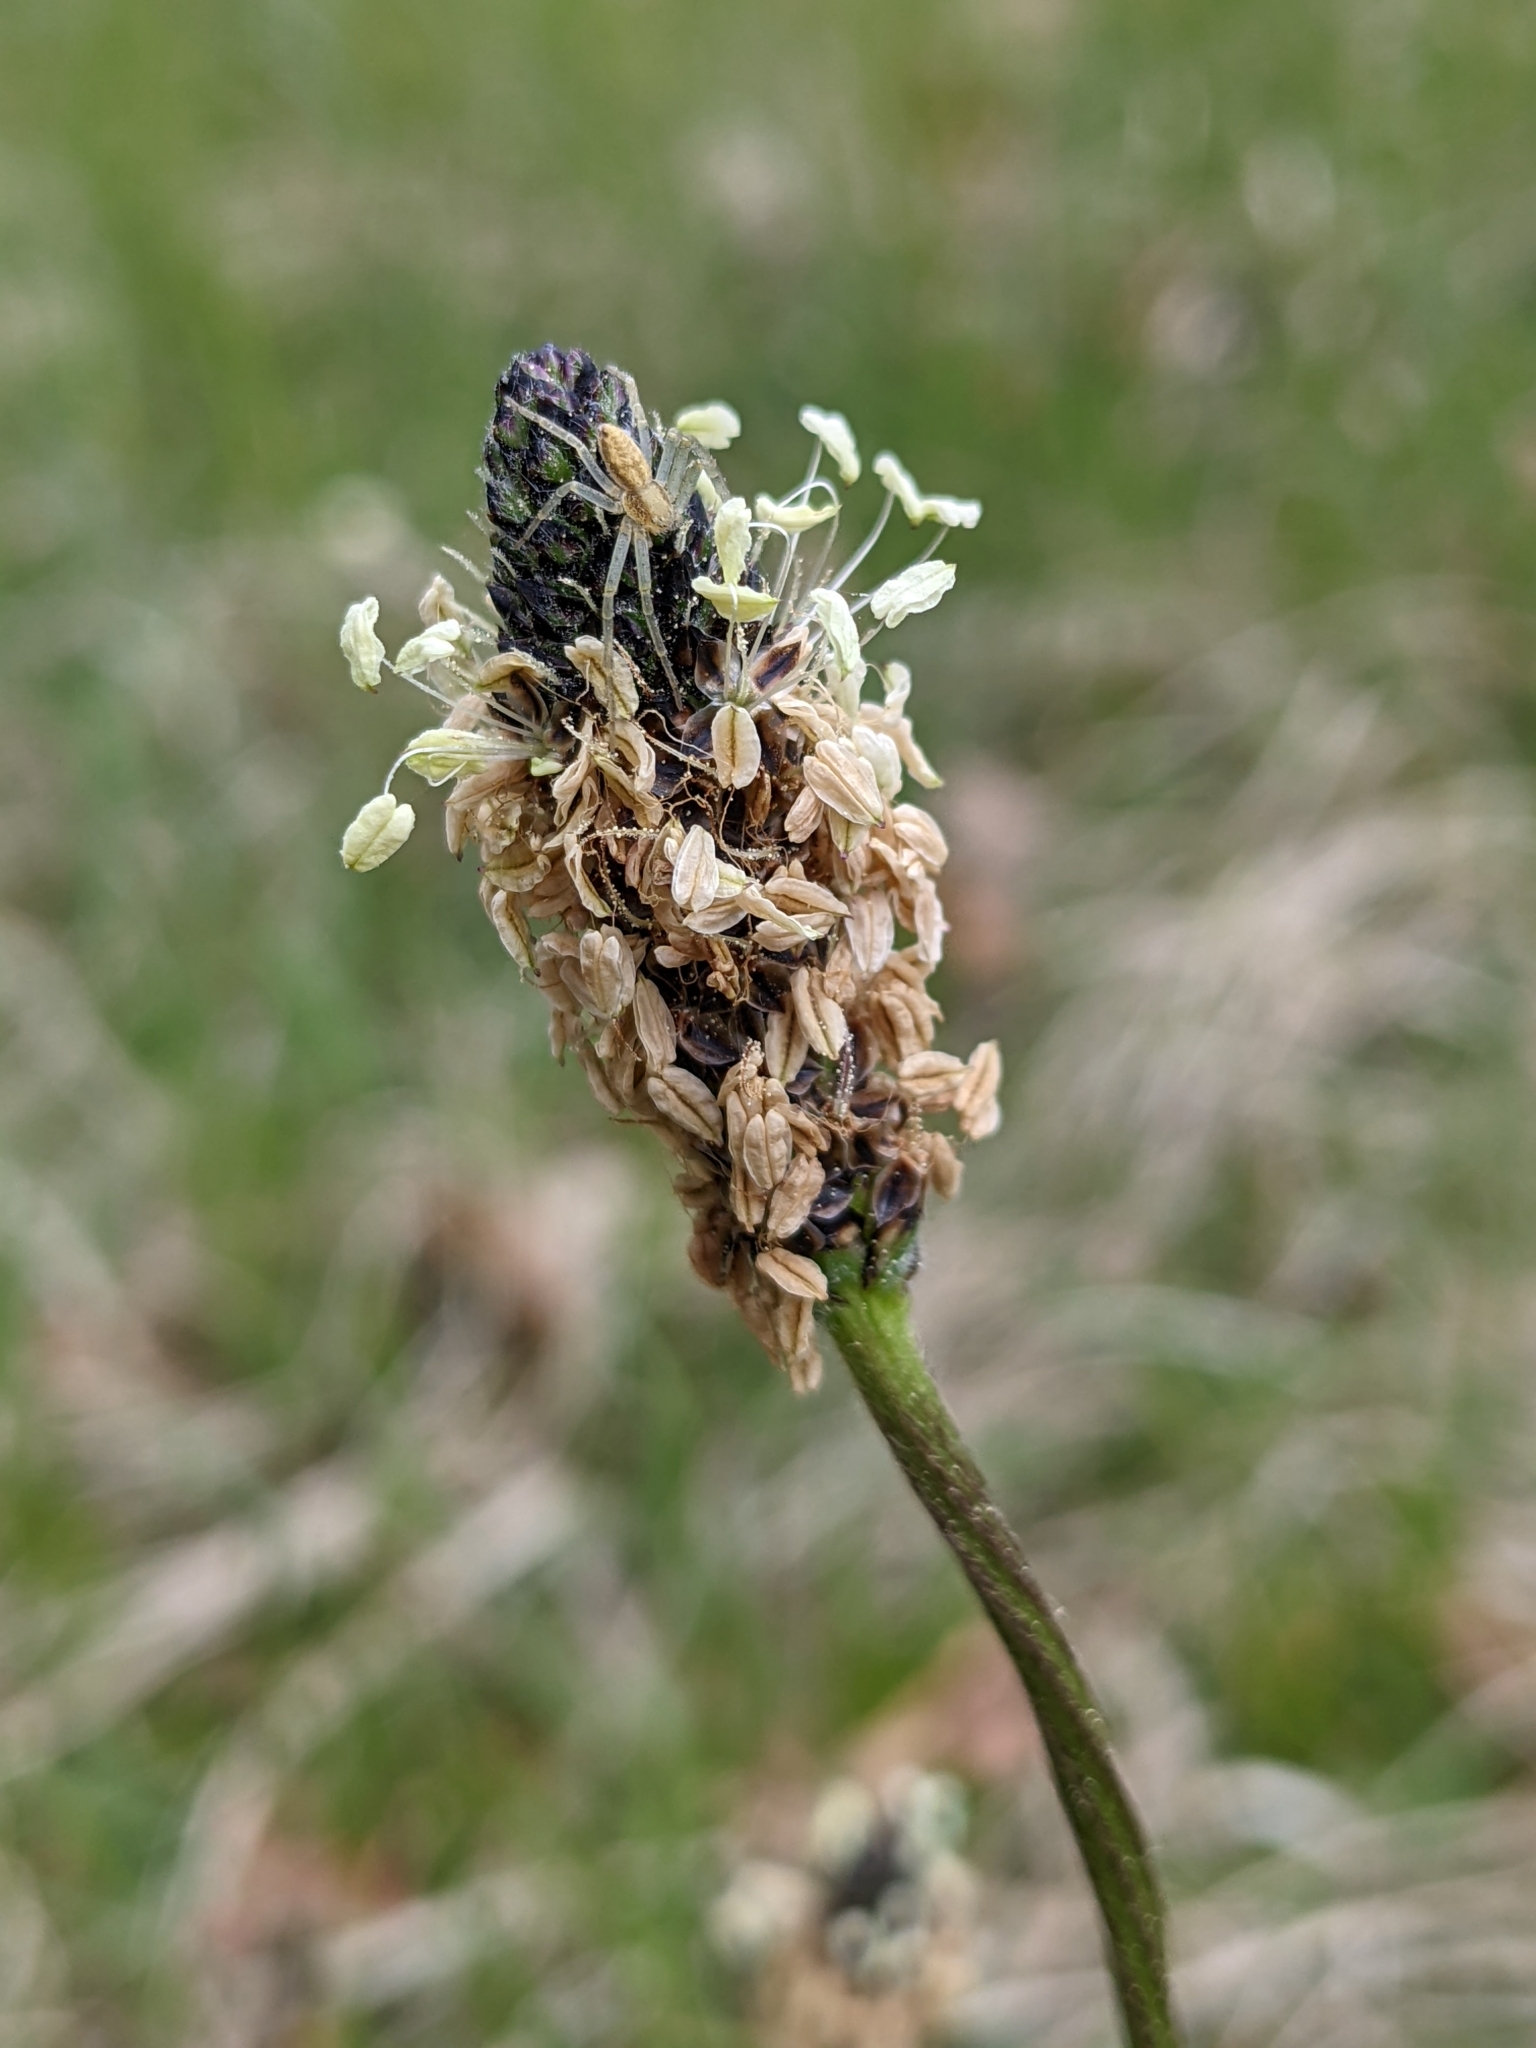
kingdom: Plantae
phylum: Tracheophyta
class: Magnoliopsida
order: Lamiales
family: Plantaginaceae
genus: Plantago
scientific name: Plantago lanceolata
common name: Ribwort plantain
